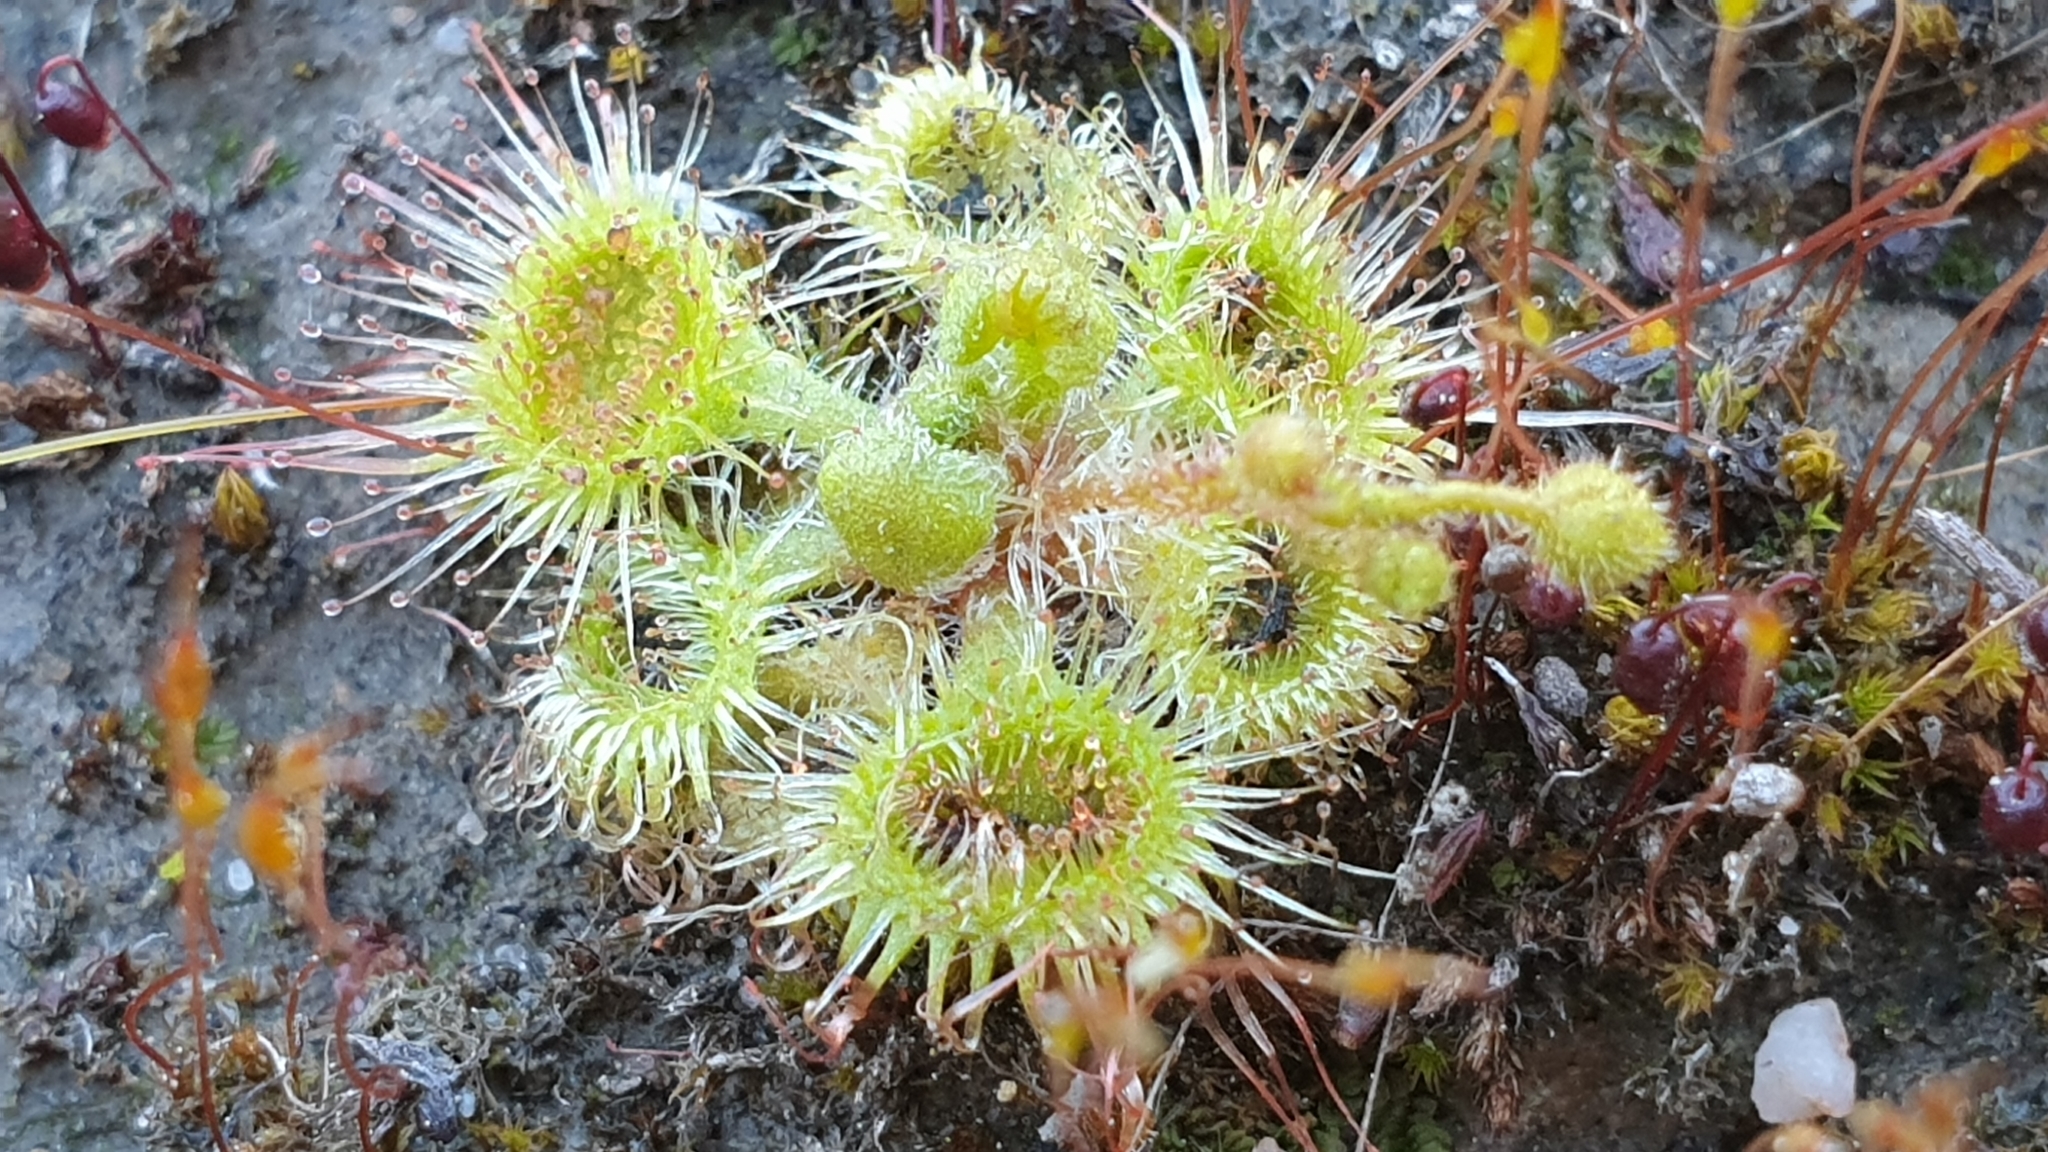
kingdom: Plantae
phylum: Tracheophyta
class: Magnoliopsida
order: Caryophyllales
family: Droseraceae
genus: Drosera
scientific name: Drosera glanduligera
